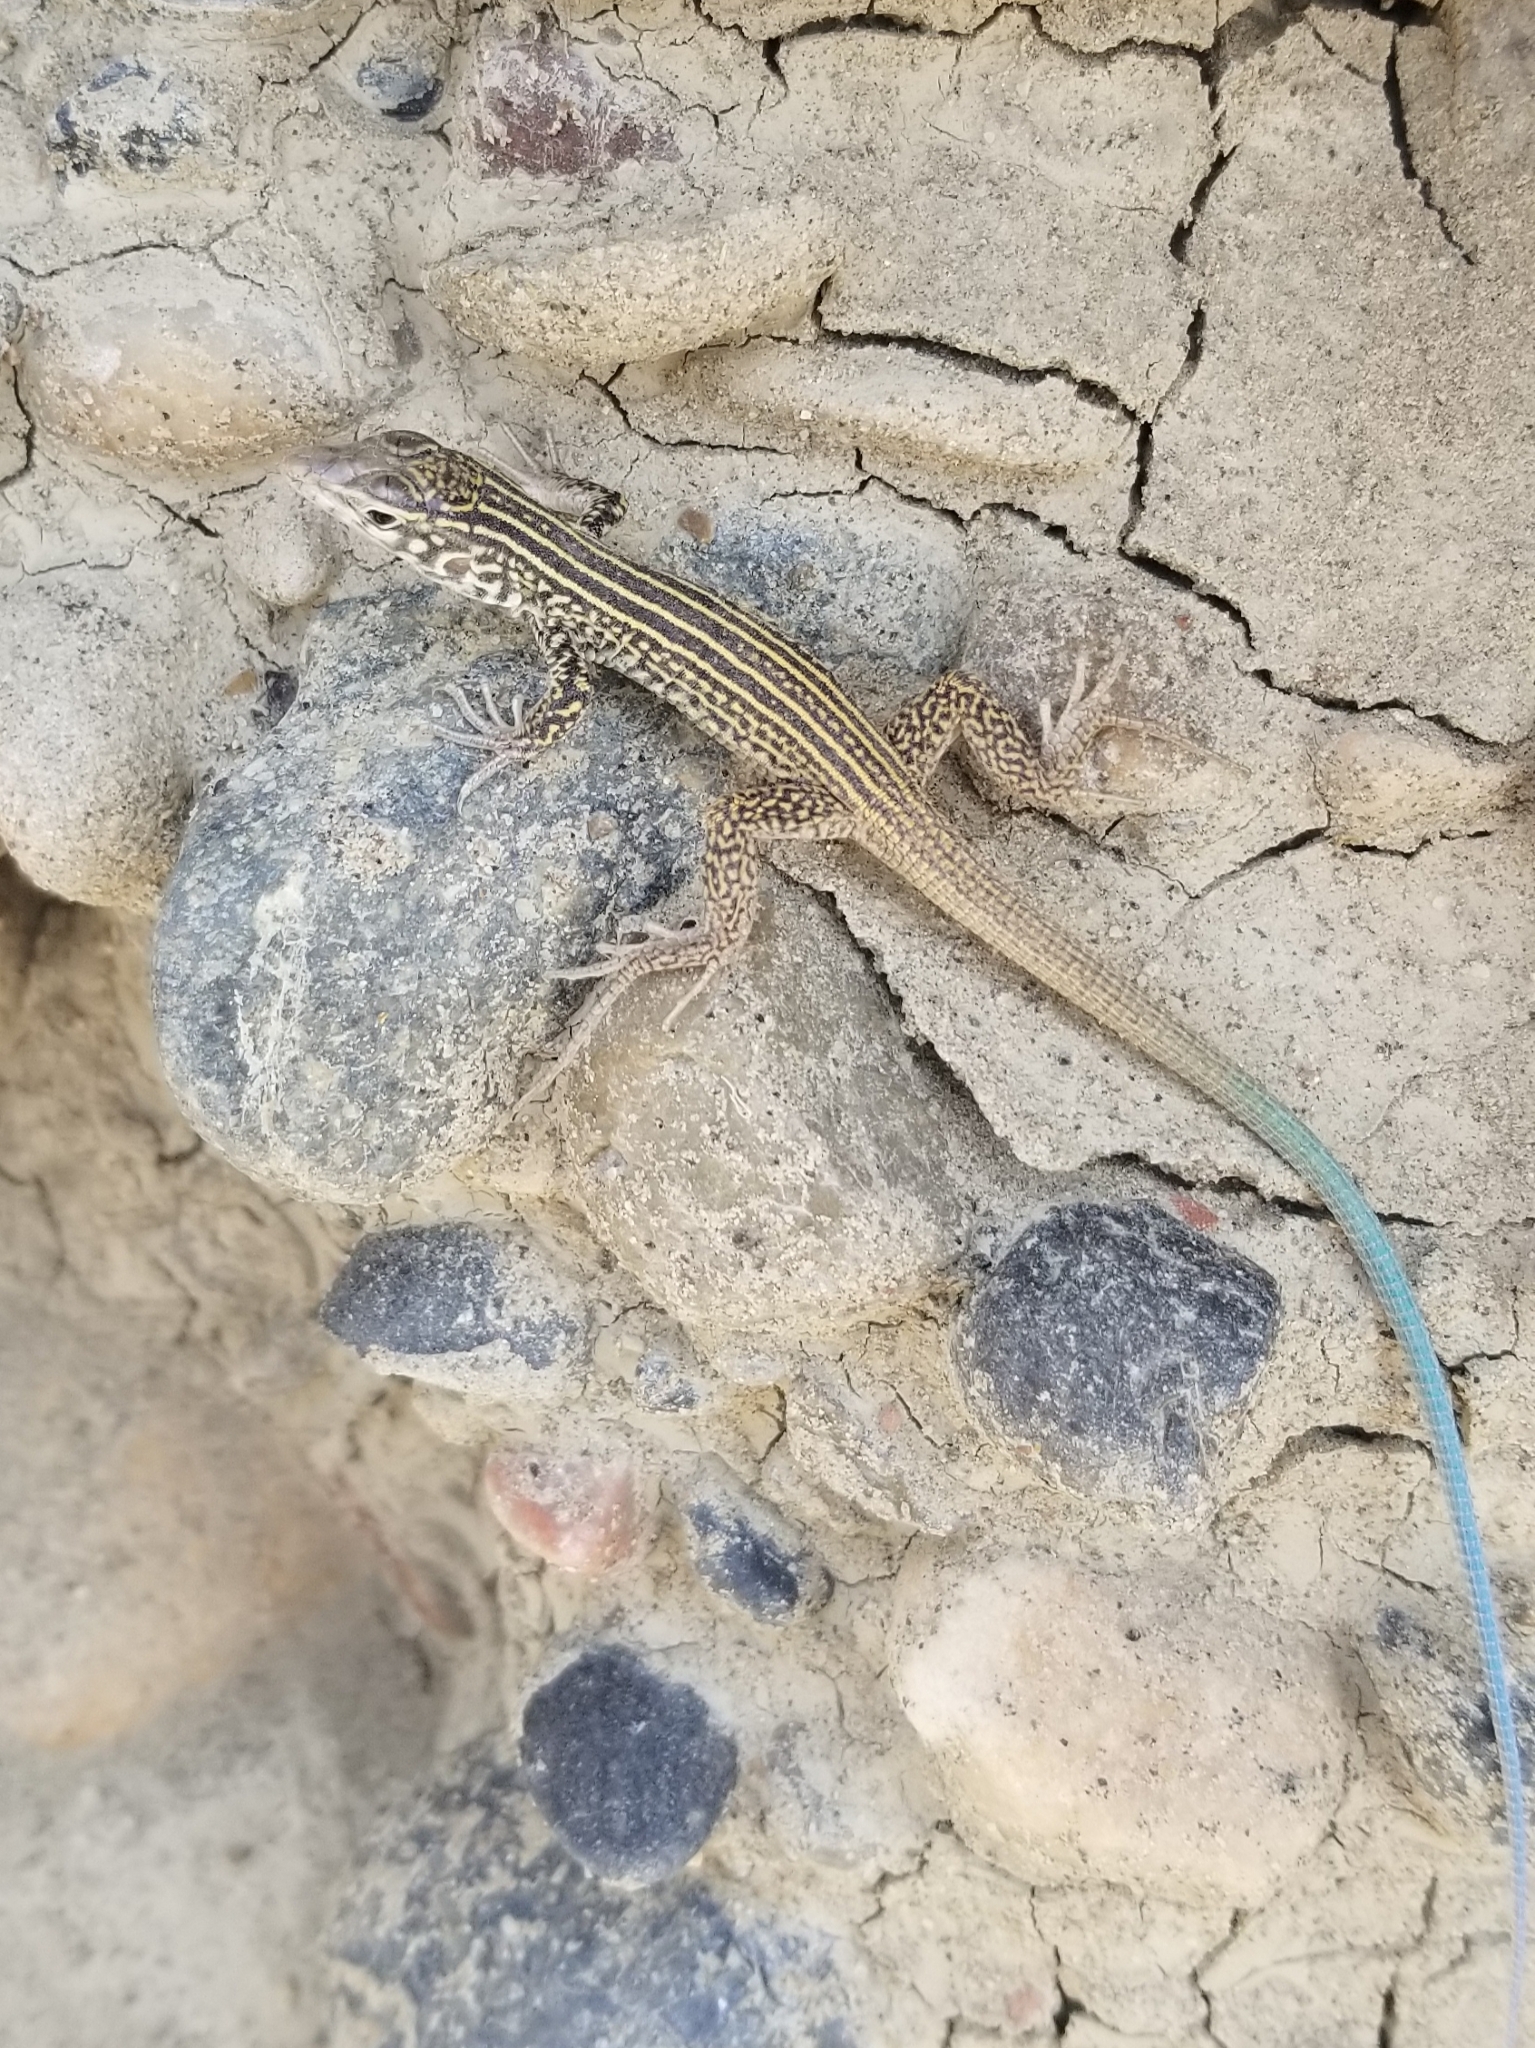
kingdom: Animalia
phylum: Chordata
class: Squamata
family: Teiidae
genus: Aspidoscelis
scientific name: Aspidoscelis tigris
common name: Tiger whiptail
